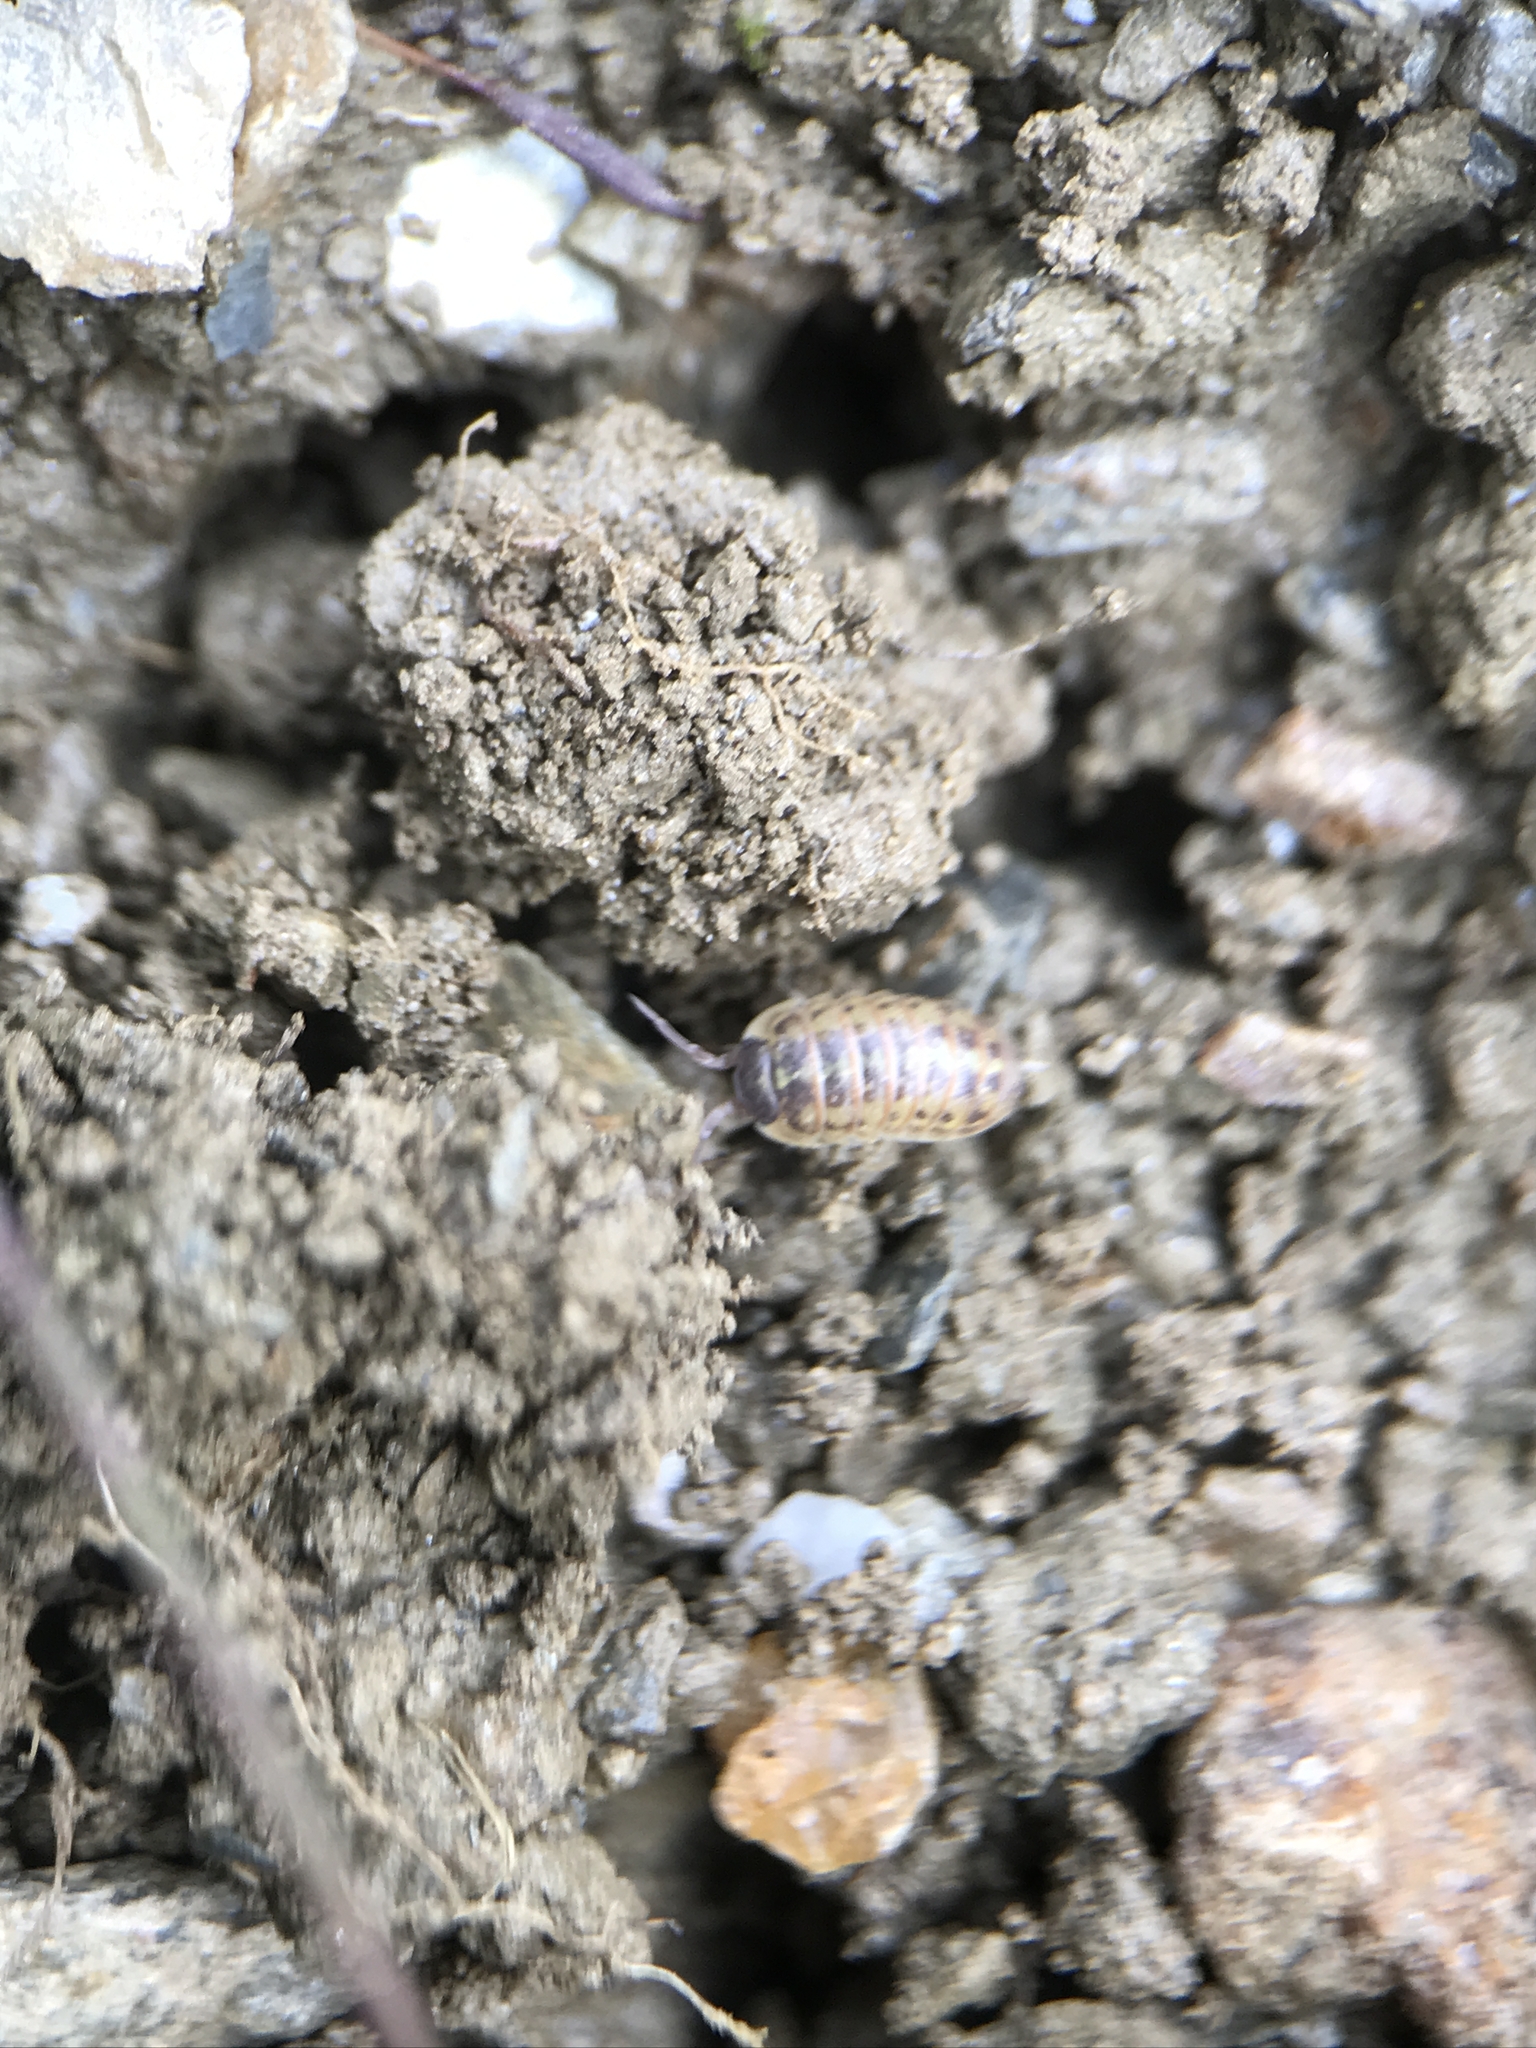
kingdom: Animalia
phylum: Arthropoda
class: Malacostraca
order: Isopoda
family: Armadillidiidae
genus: Armadillidium
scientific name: Armadillidium versicolor
